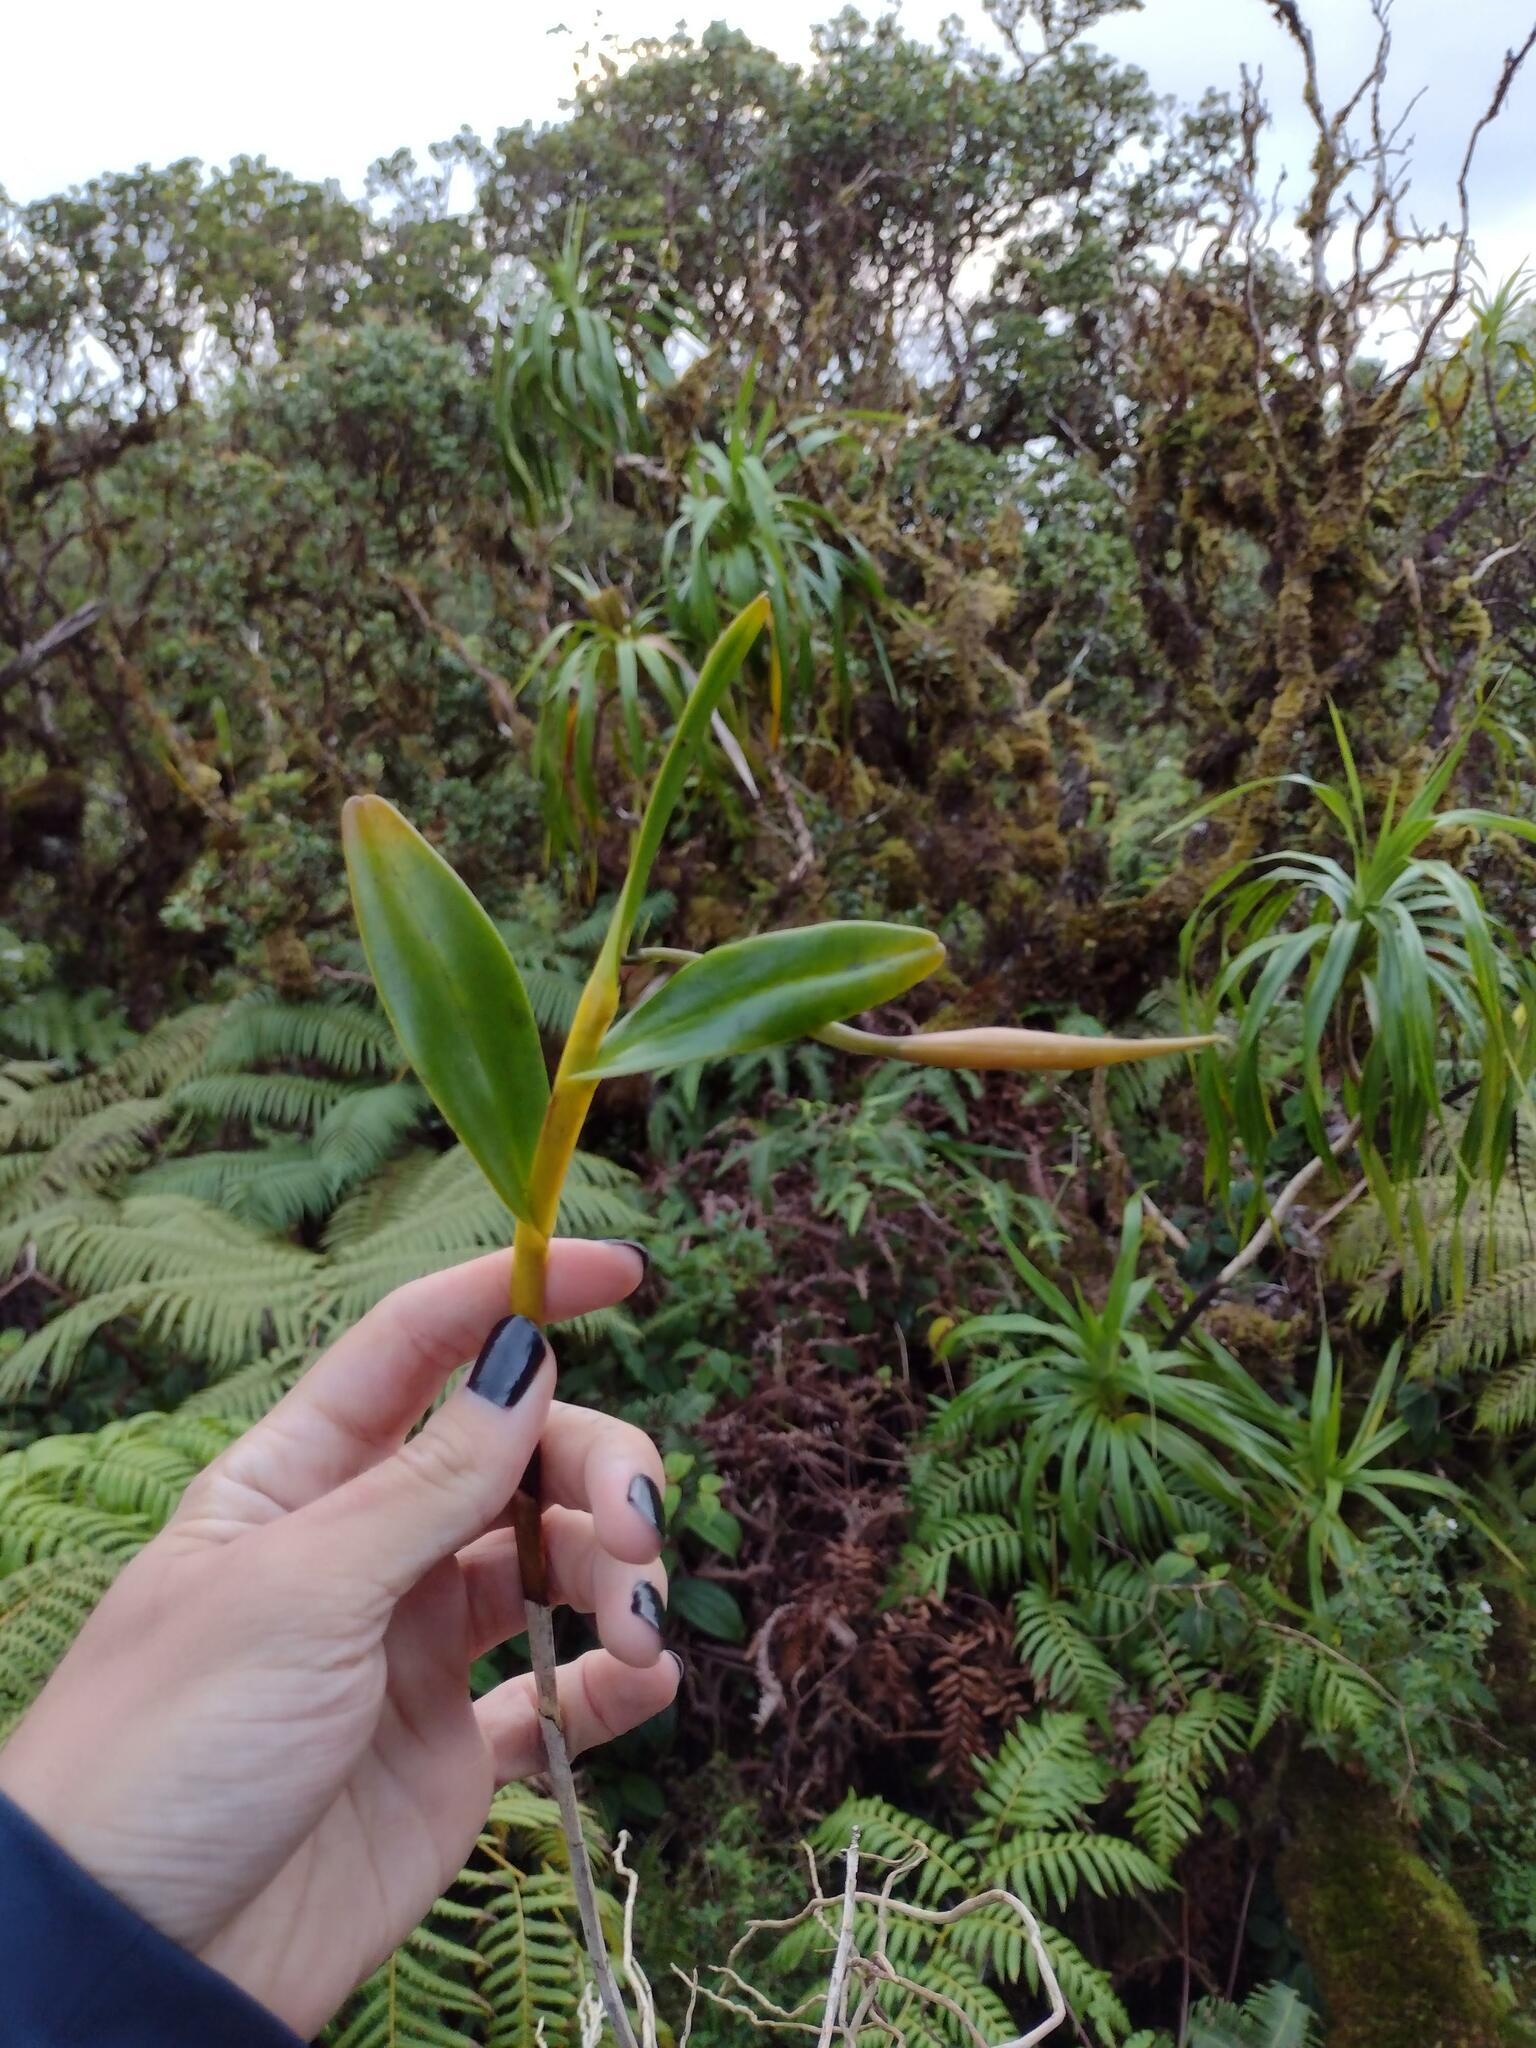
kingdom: Plantae
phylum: Tracheophyta
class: Liliopsida
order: Asparagales
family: Orchidaceae
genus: Epidendrum
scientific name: Epidendrum nocturnum
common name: Night scented orchid
